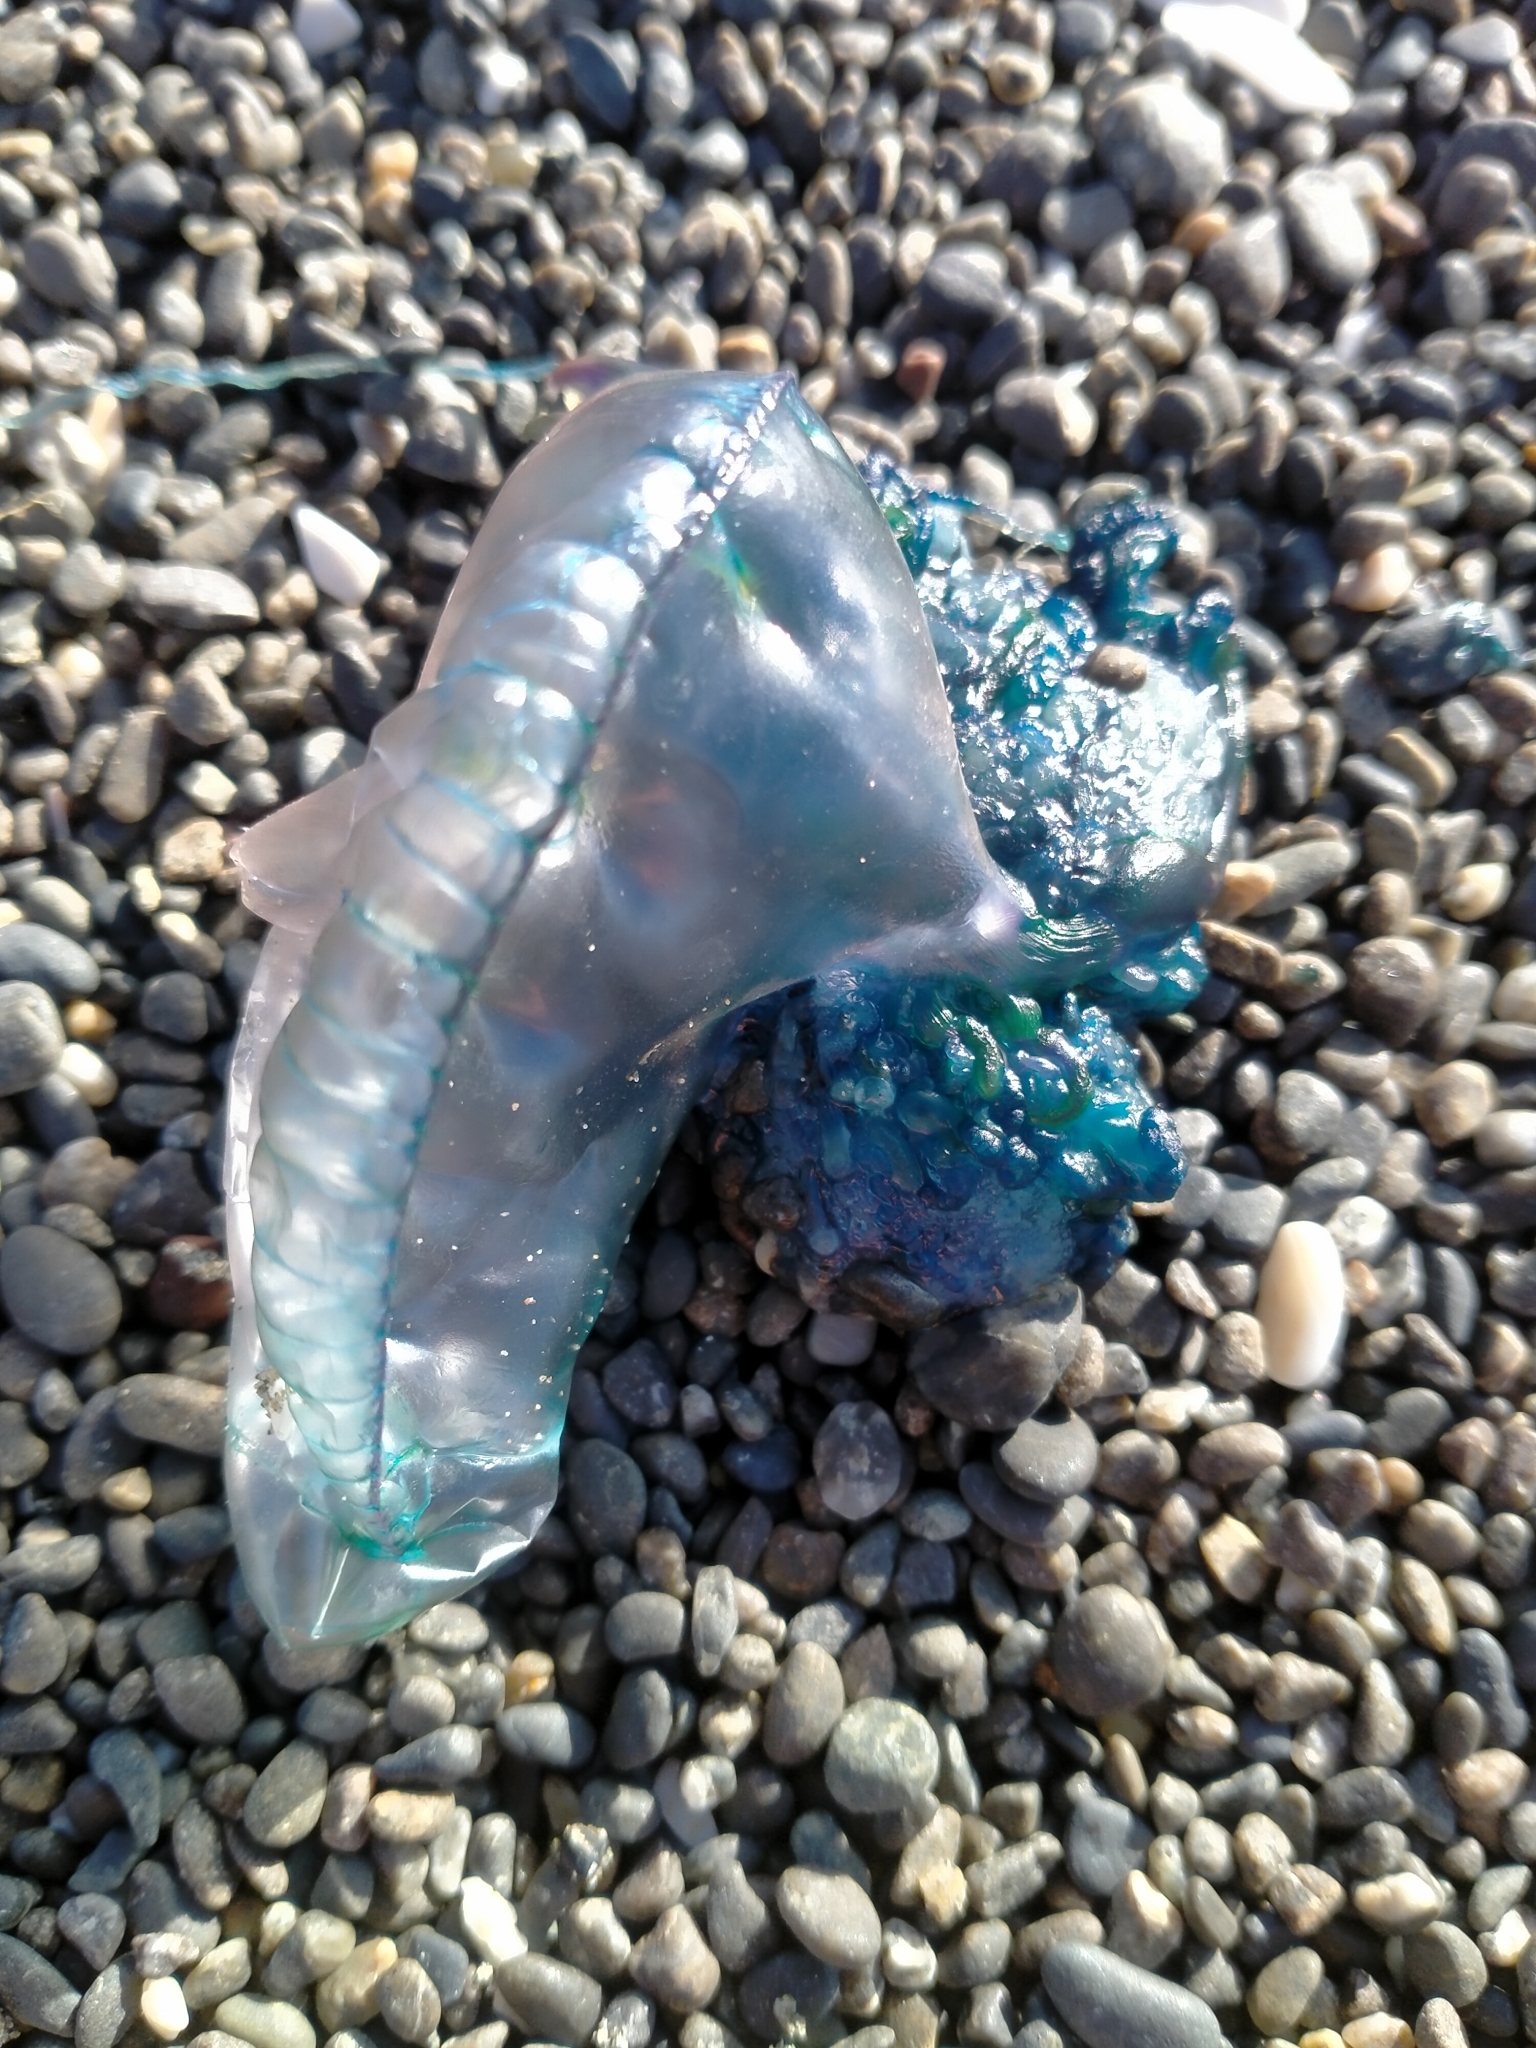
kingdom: Animalia
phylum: Cnidaria
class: Hydrozoa
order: Siphonophorae
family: Physaliidae
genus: Physalia
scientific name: Physalia physalis
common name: Portuguese man-of-war
